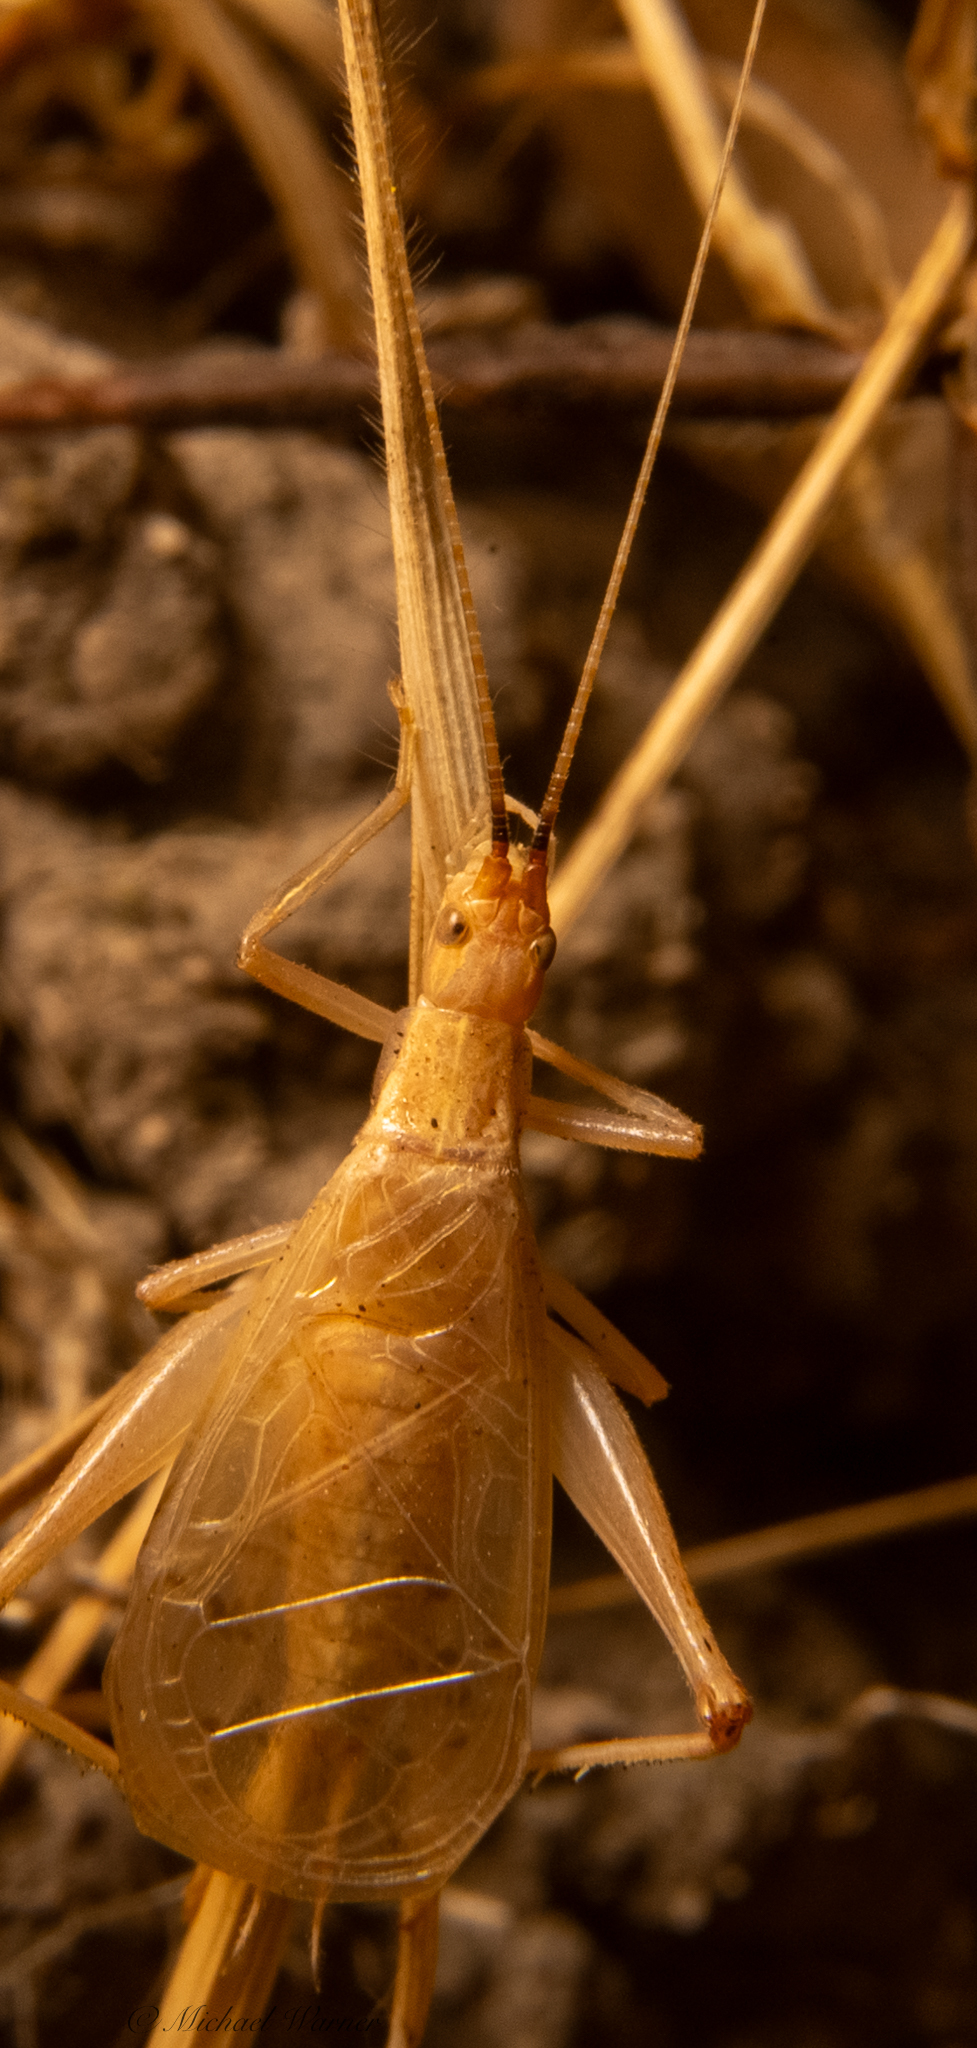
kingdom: Animalia
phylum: Arthropoda
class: Insecta
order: Orthoptera
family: Gryllidae
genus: Oecanthus
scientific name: Oecanthus californicus
